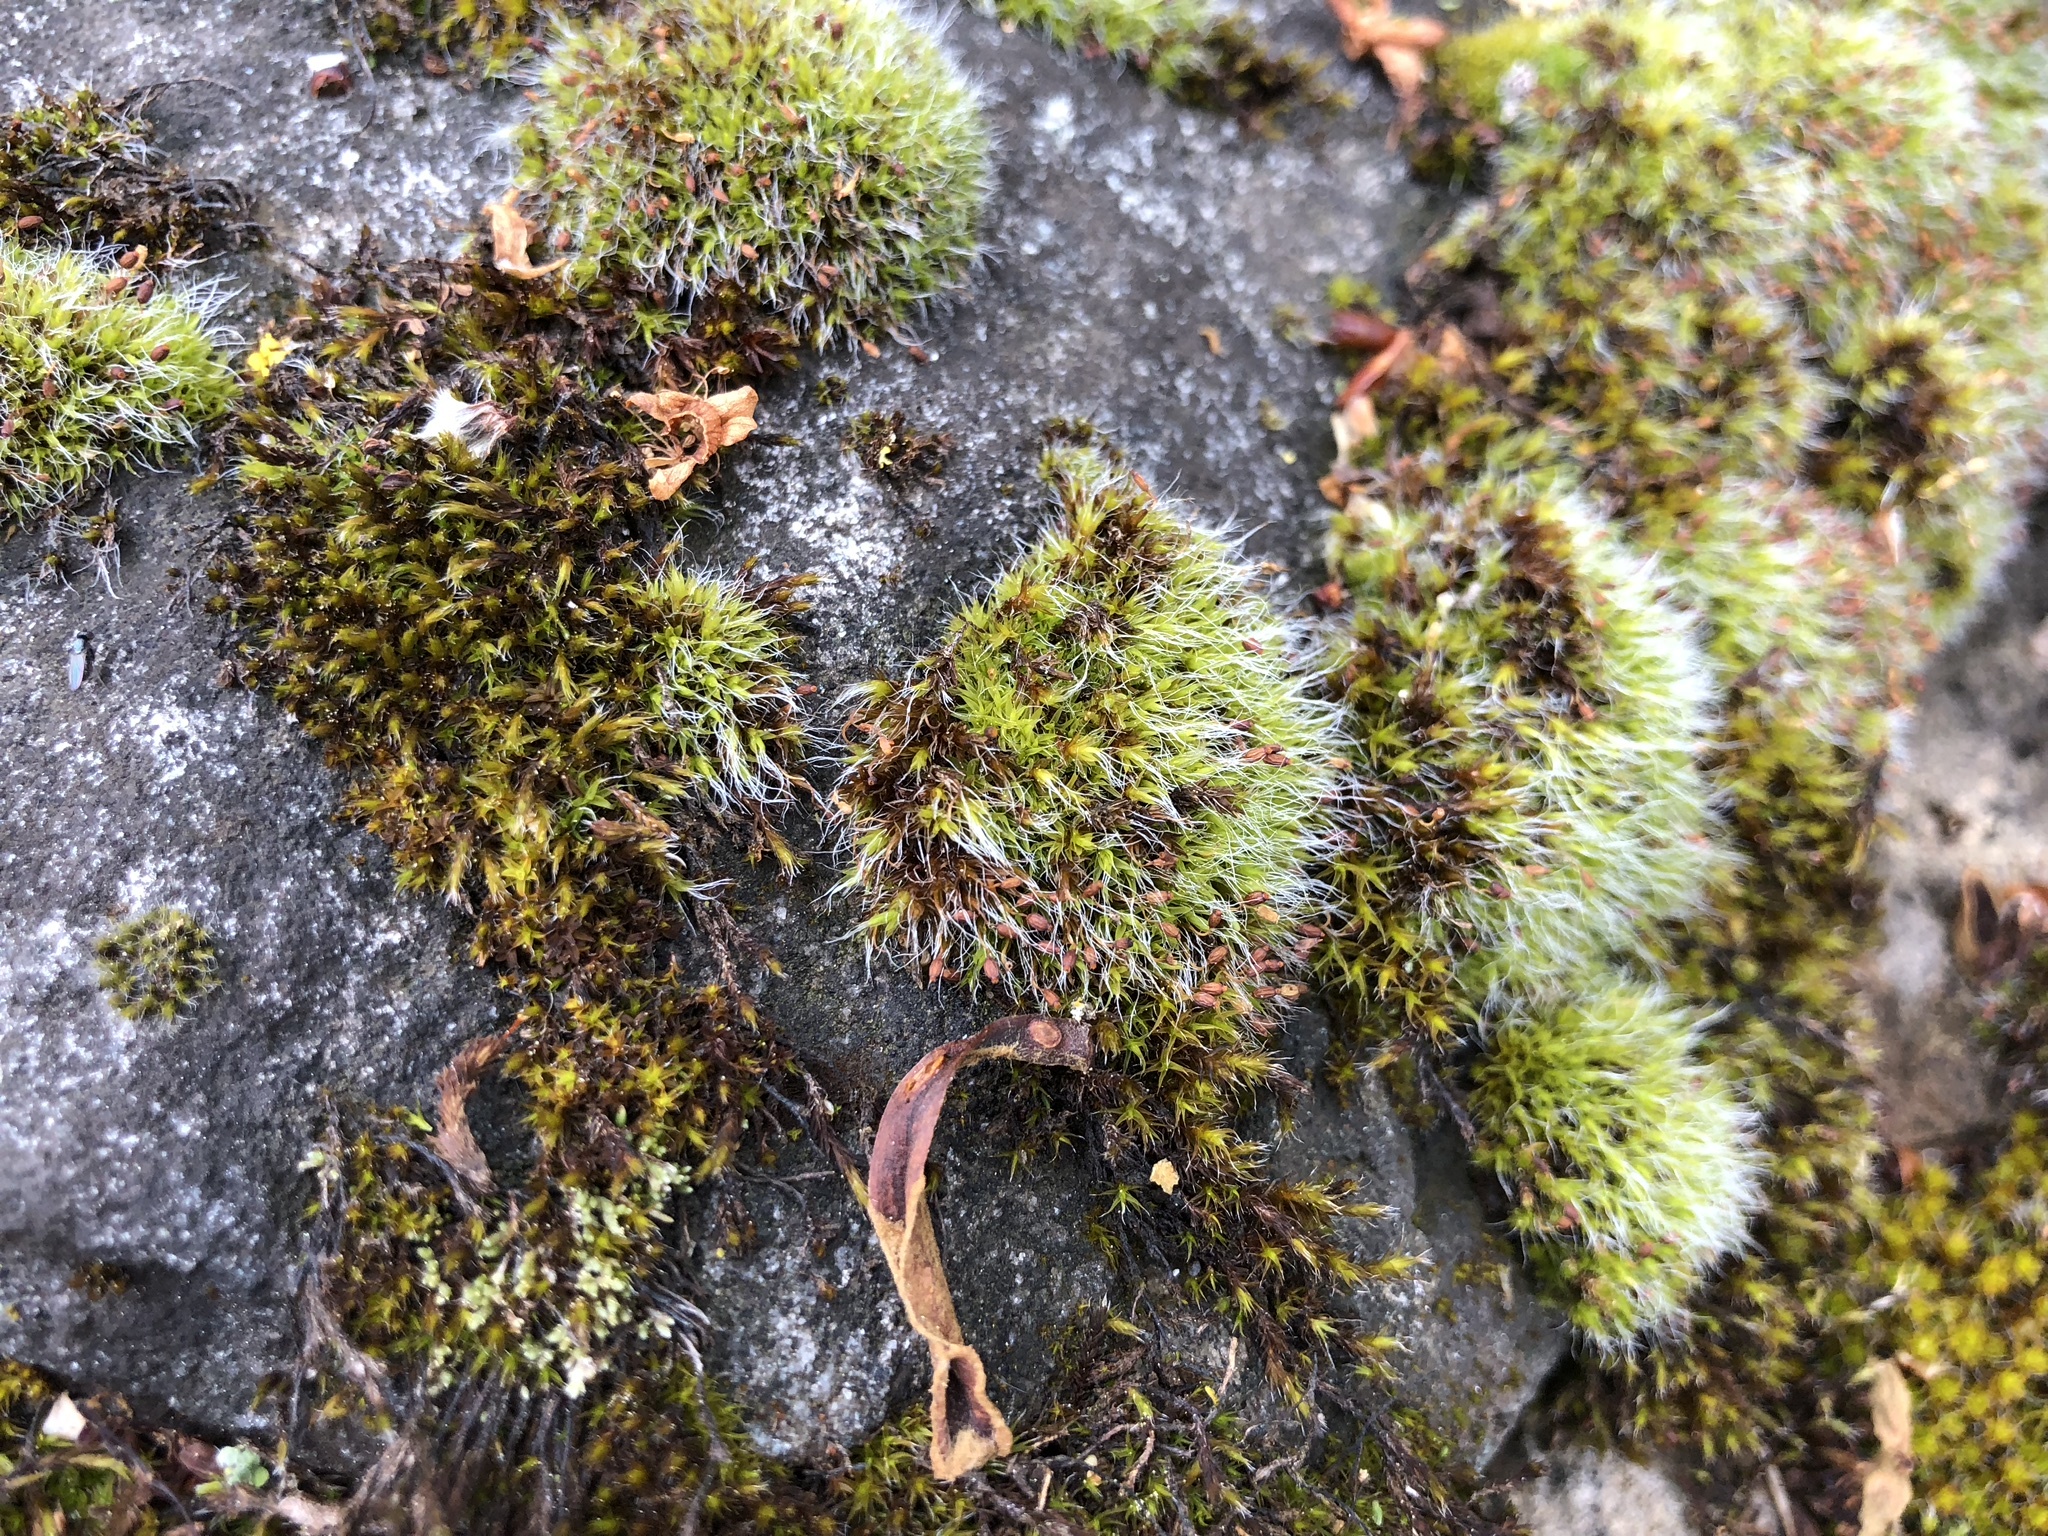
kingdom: Plantae
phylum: Bryophyta
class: Bryopsida
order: Grimmiales
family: Grimmiaceae
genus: Grimmia
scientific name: Grimmia pulvinata
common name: Grey-cushioned grimmia
